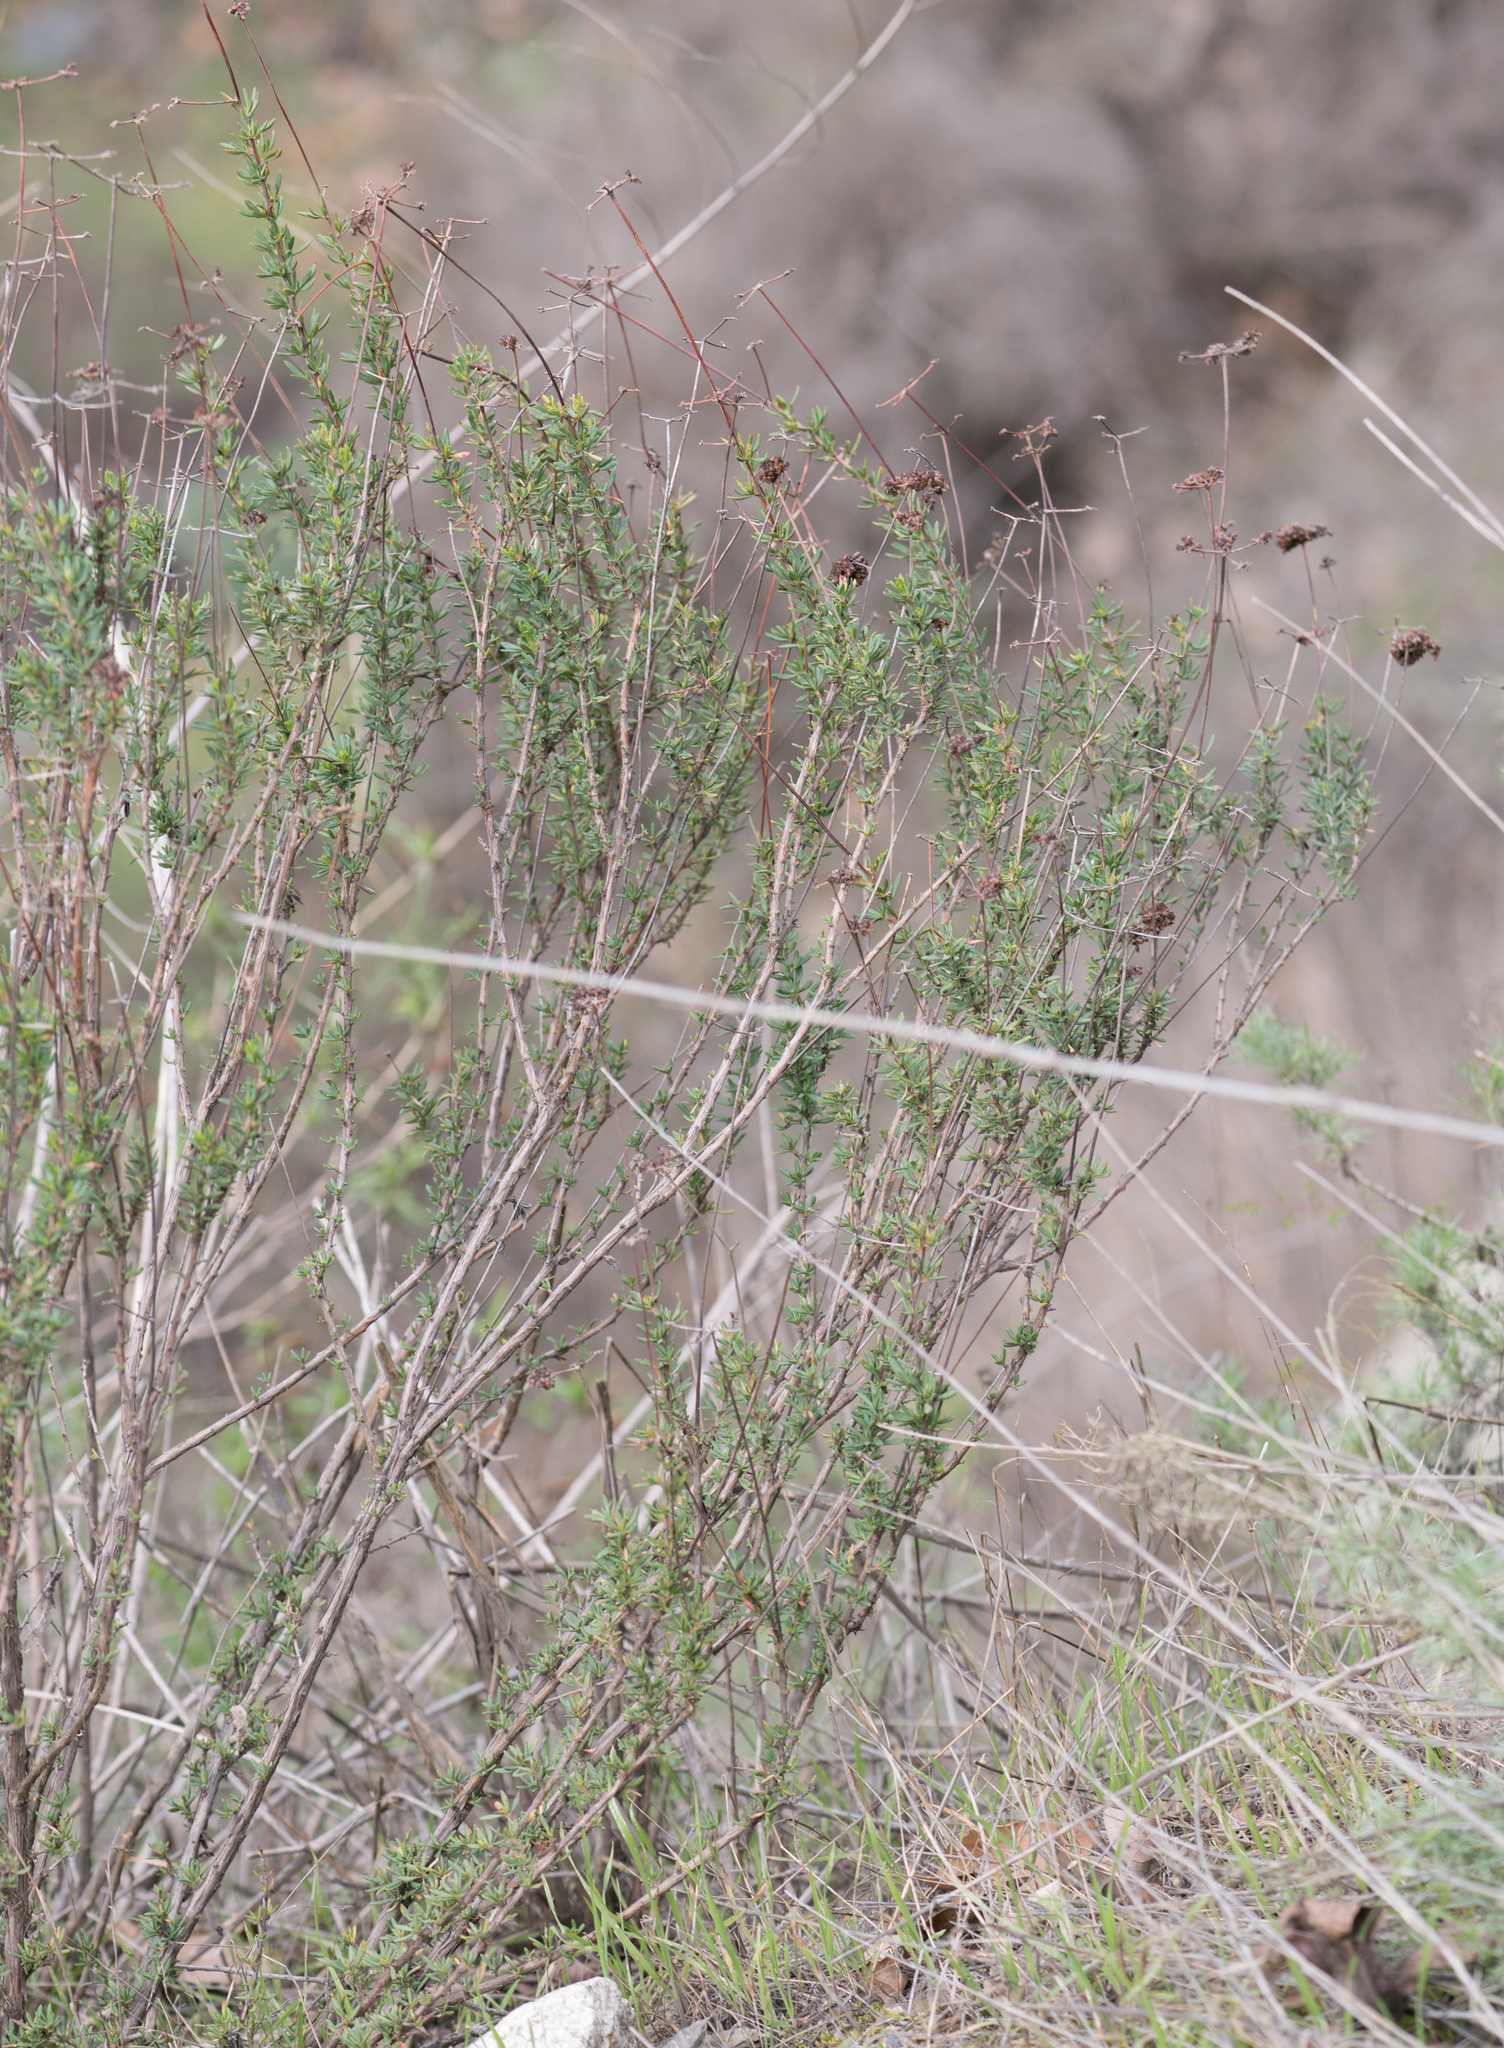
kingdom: Plantae
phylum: Tracheophyta
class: Magnoliopsida
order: Caryophyllales
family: Polygonaceae
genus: Eriogonum
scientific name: Eriogonum fasciculatum
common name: California wild buckwheat
